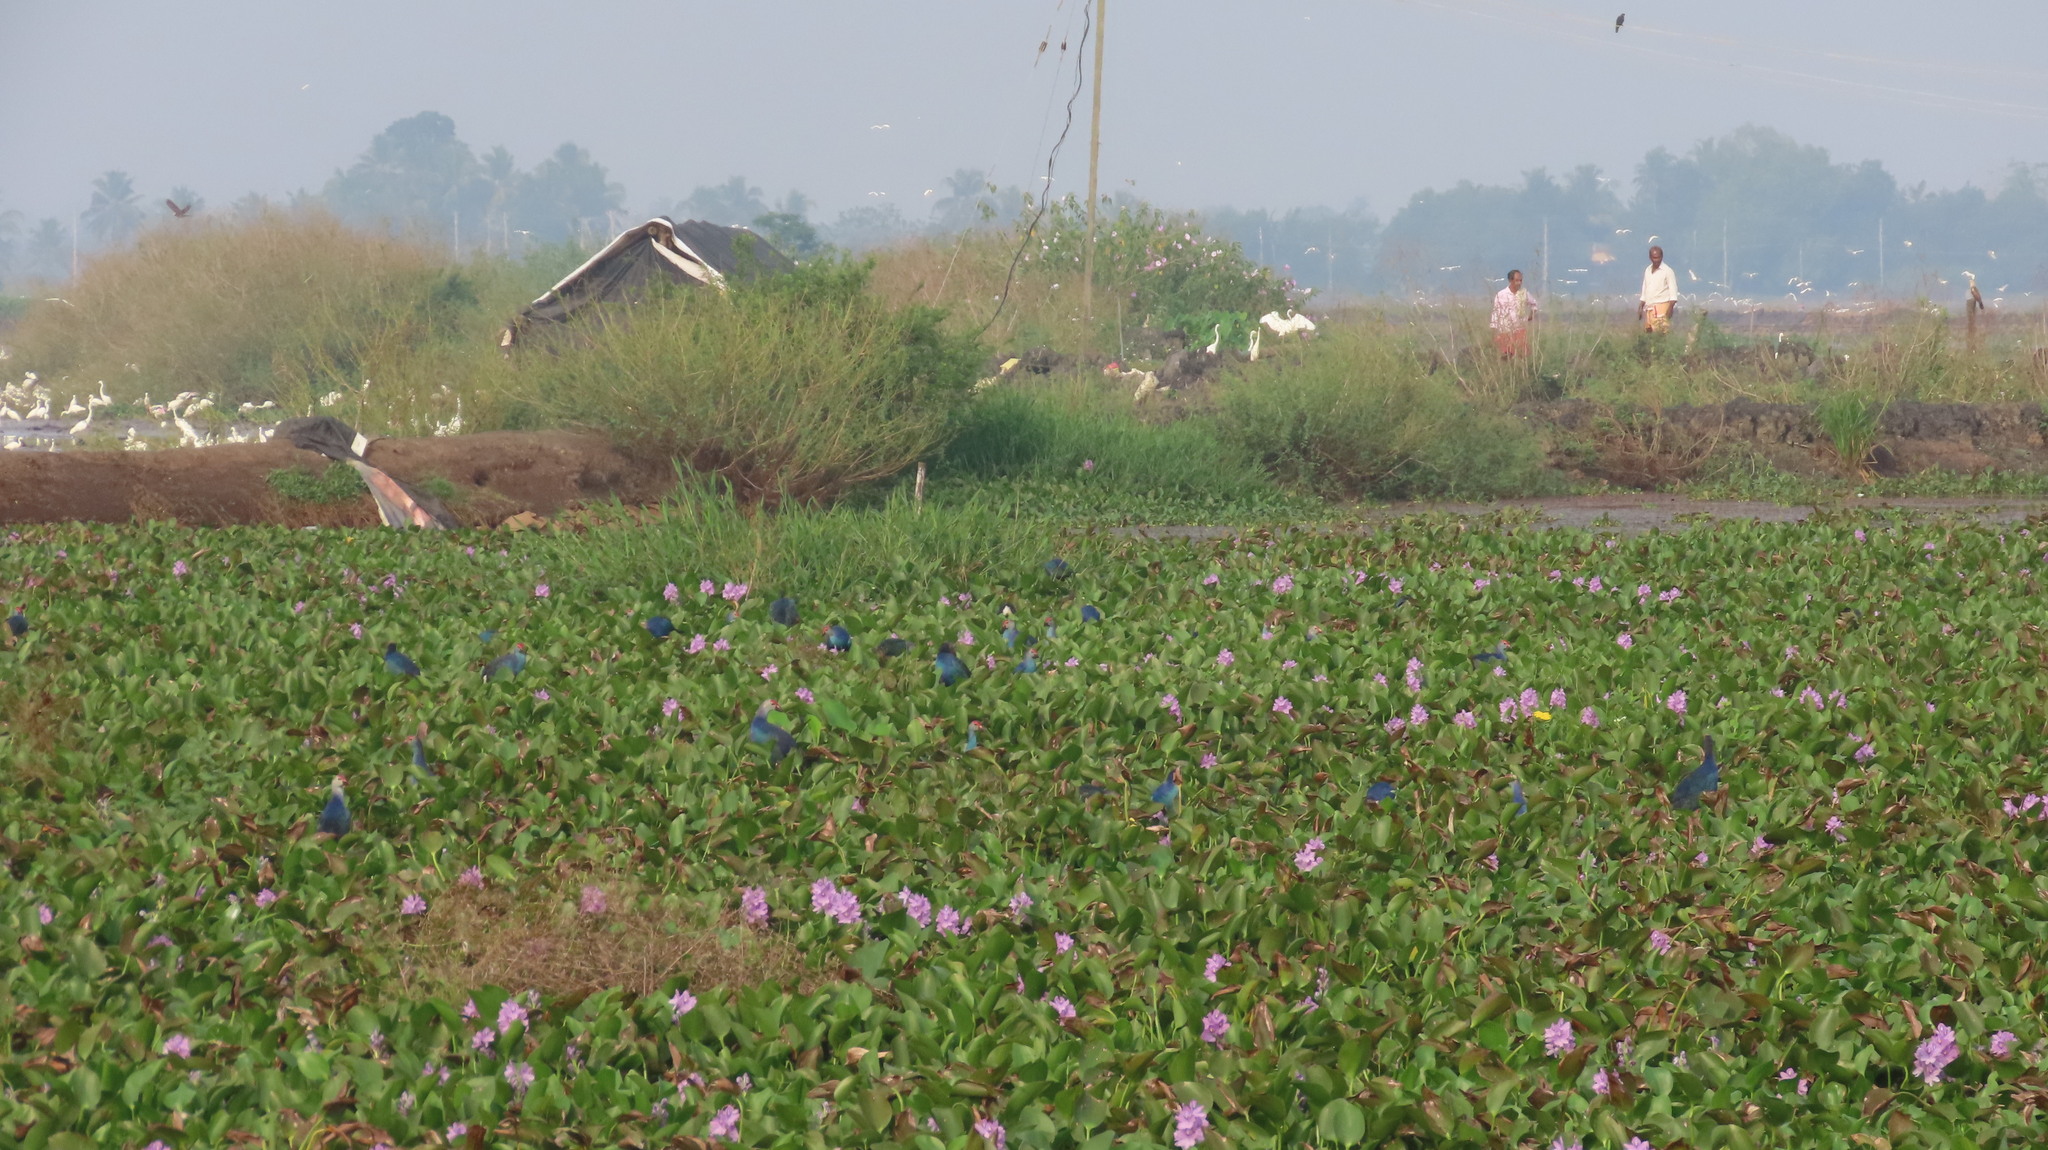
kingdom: Animalia
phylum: Chordata
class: Aves
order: Gruiformes
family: Rallidae
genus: Porphyrio
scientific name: Porphyrio porphyrio
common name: Purple swamphen
